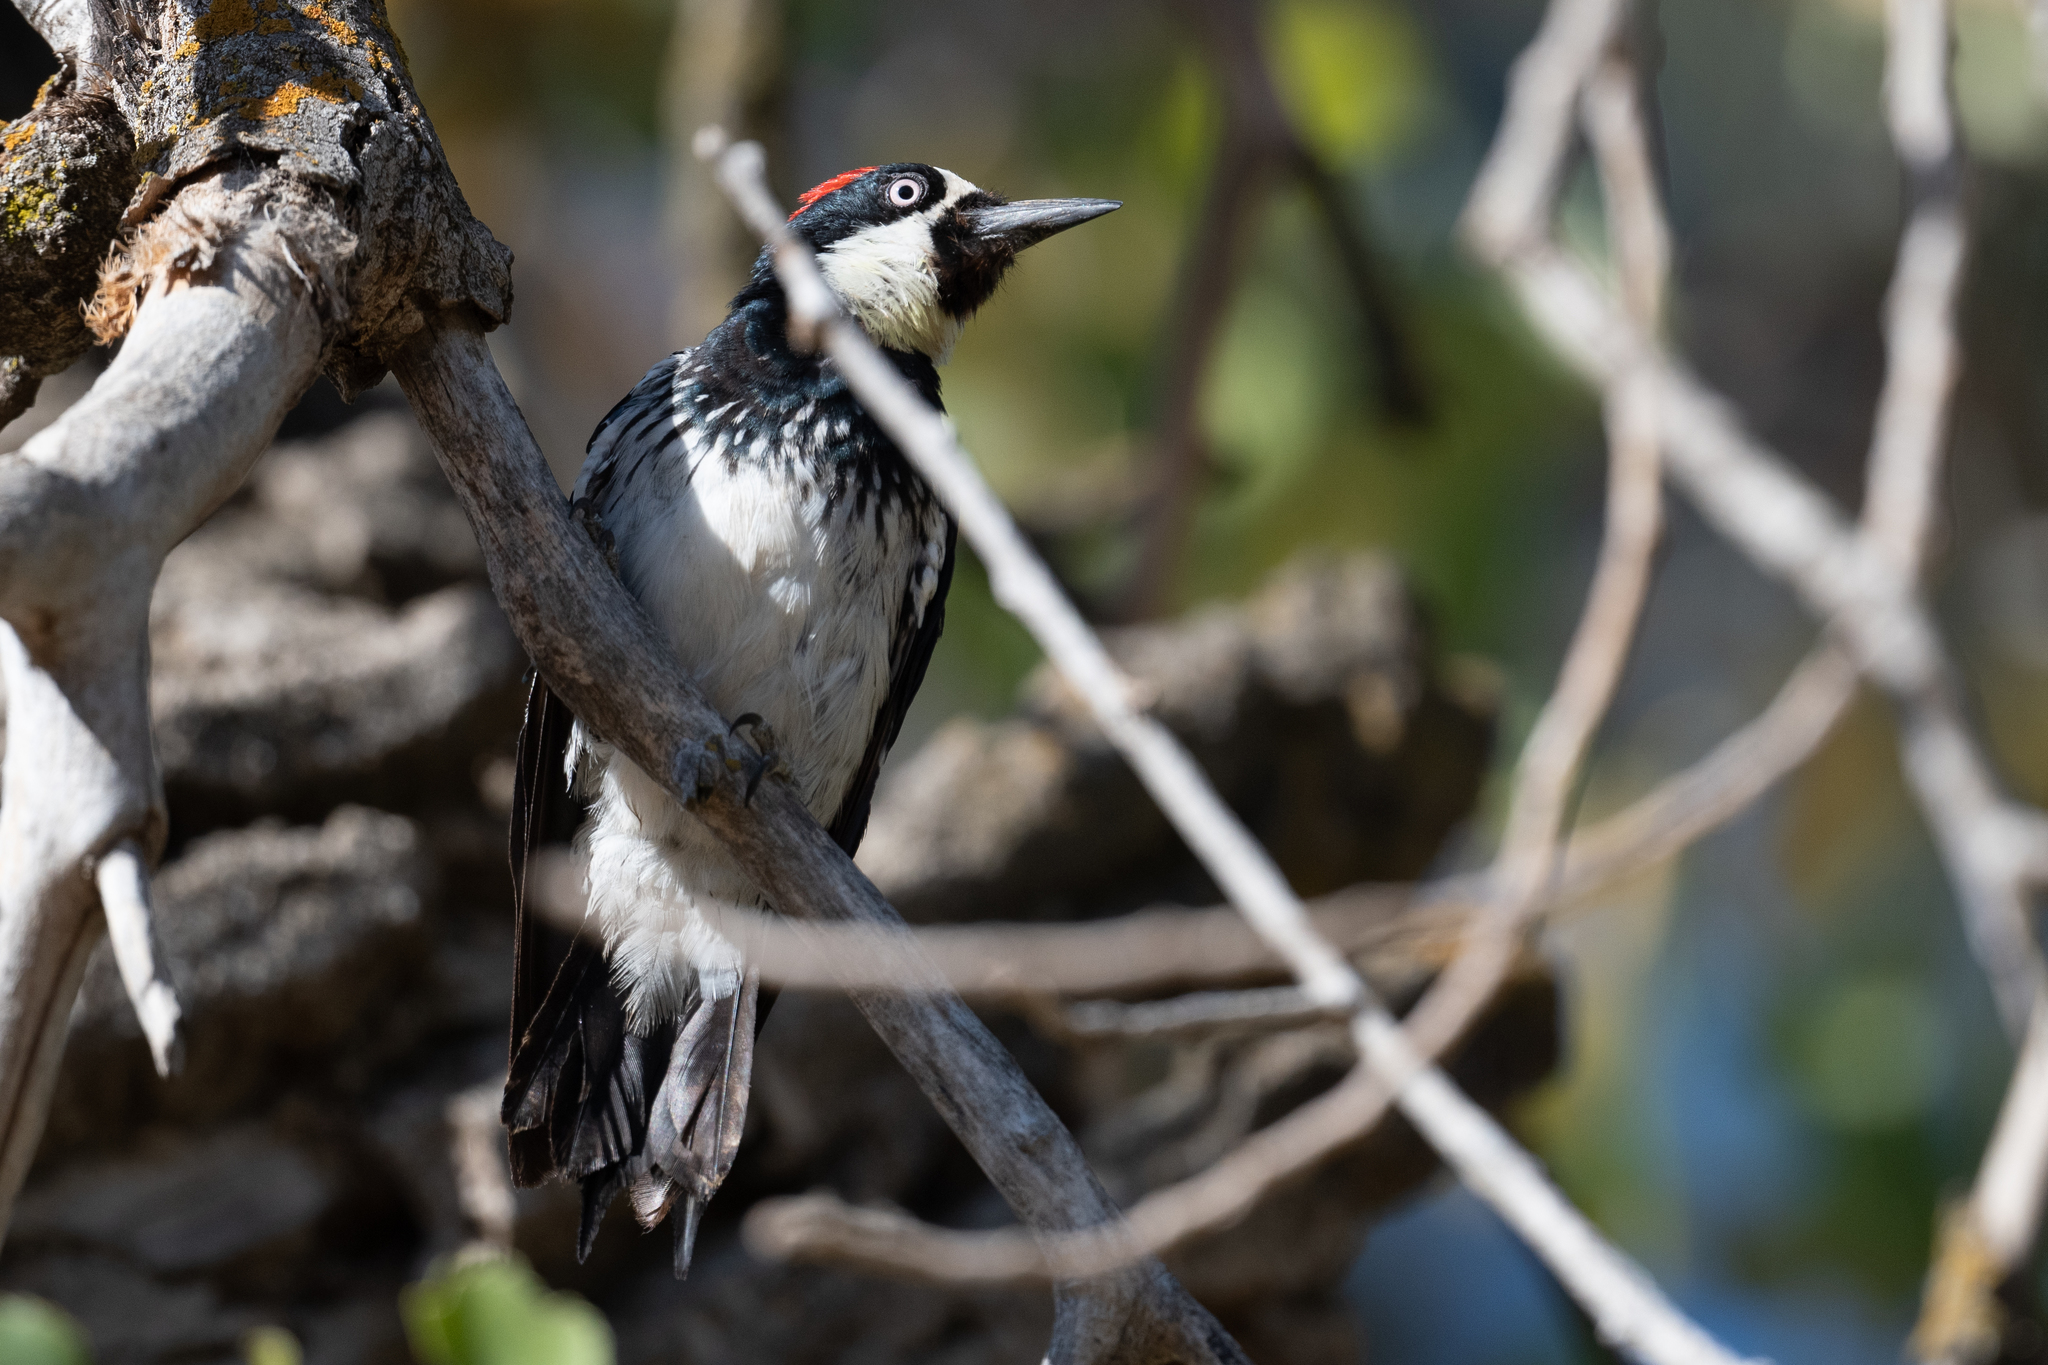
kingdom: Animalia
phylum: Chordata
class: Aves
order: Piciformes
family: Picidae
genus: Melanerpes
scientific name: Melanerpes formicivorus
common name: Acorn woodpecker
